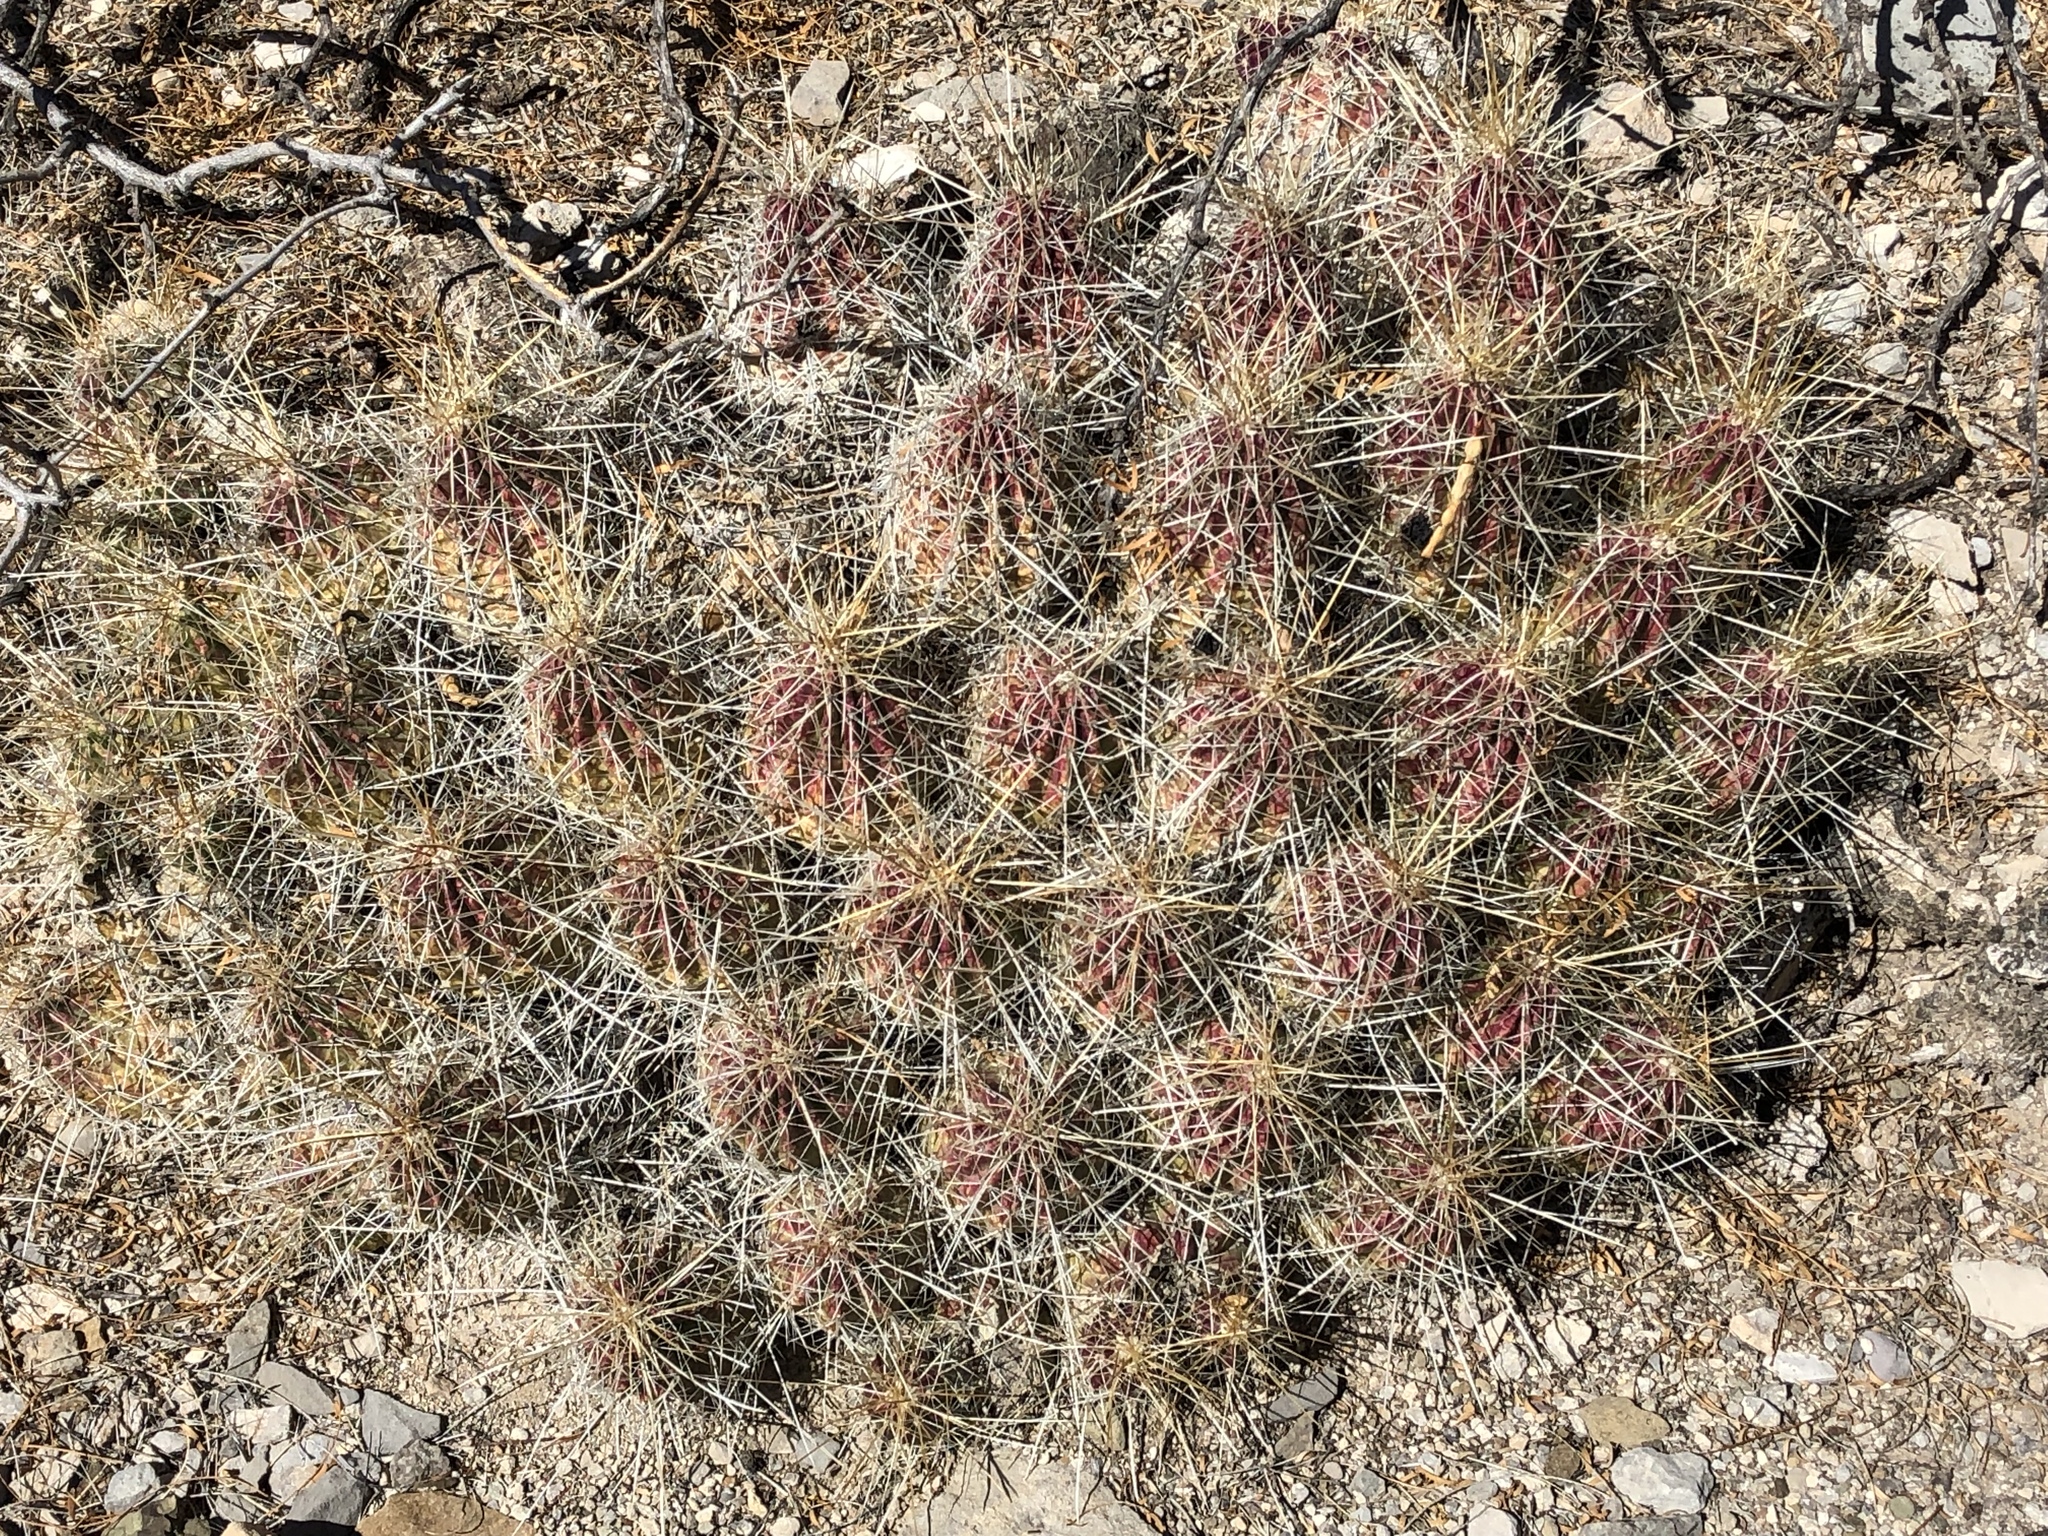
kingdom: Plantae
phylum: Tracheophyta
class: Magnoliopsida
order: Caryophyllales
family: Cactaceae
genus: Echinocereus
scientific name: Echinocereus stramineus
